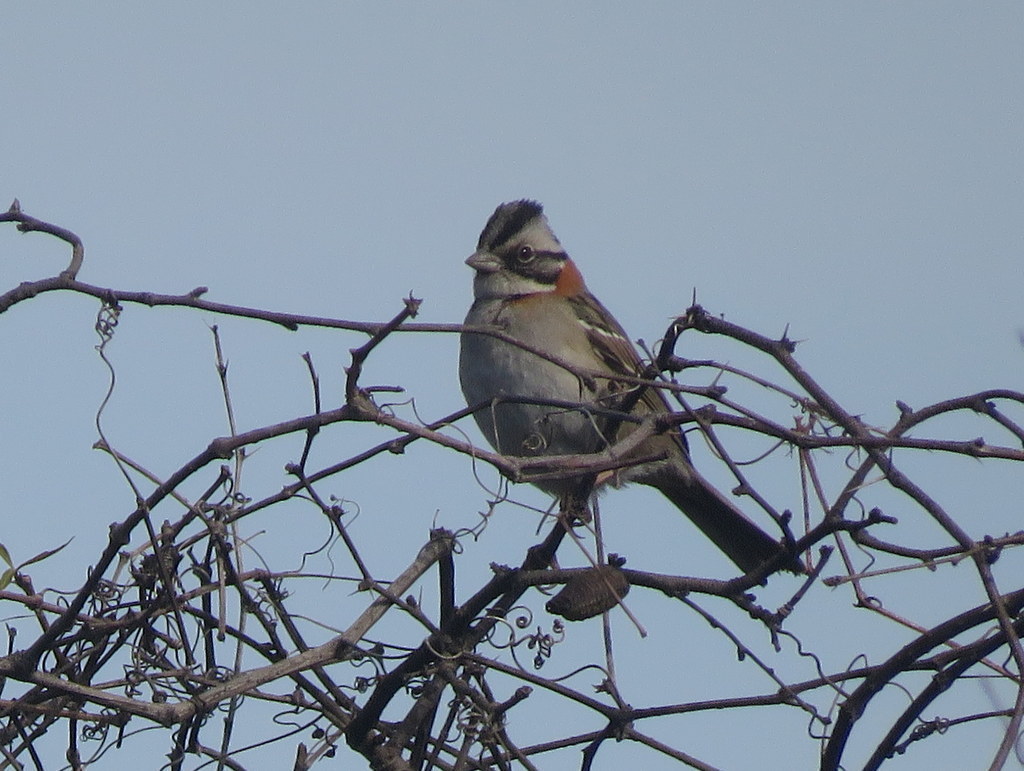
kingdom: Animalia
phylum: Chordata
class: Aves
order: Passeriformes
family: Passerellidae
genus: Zonotrichia
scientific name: Zonotrichia capensis
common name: Rufous-collared sparrow
